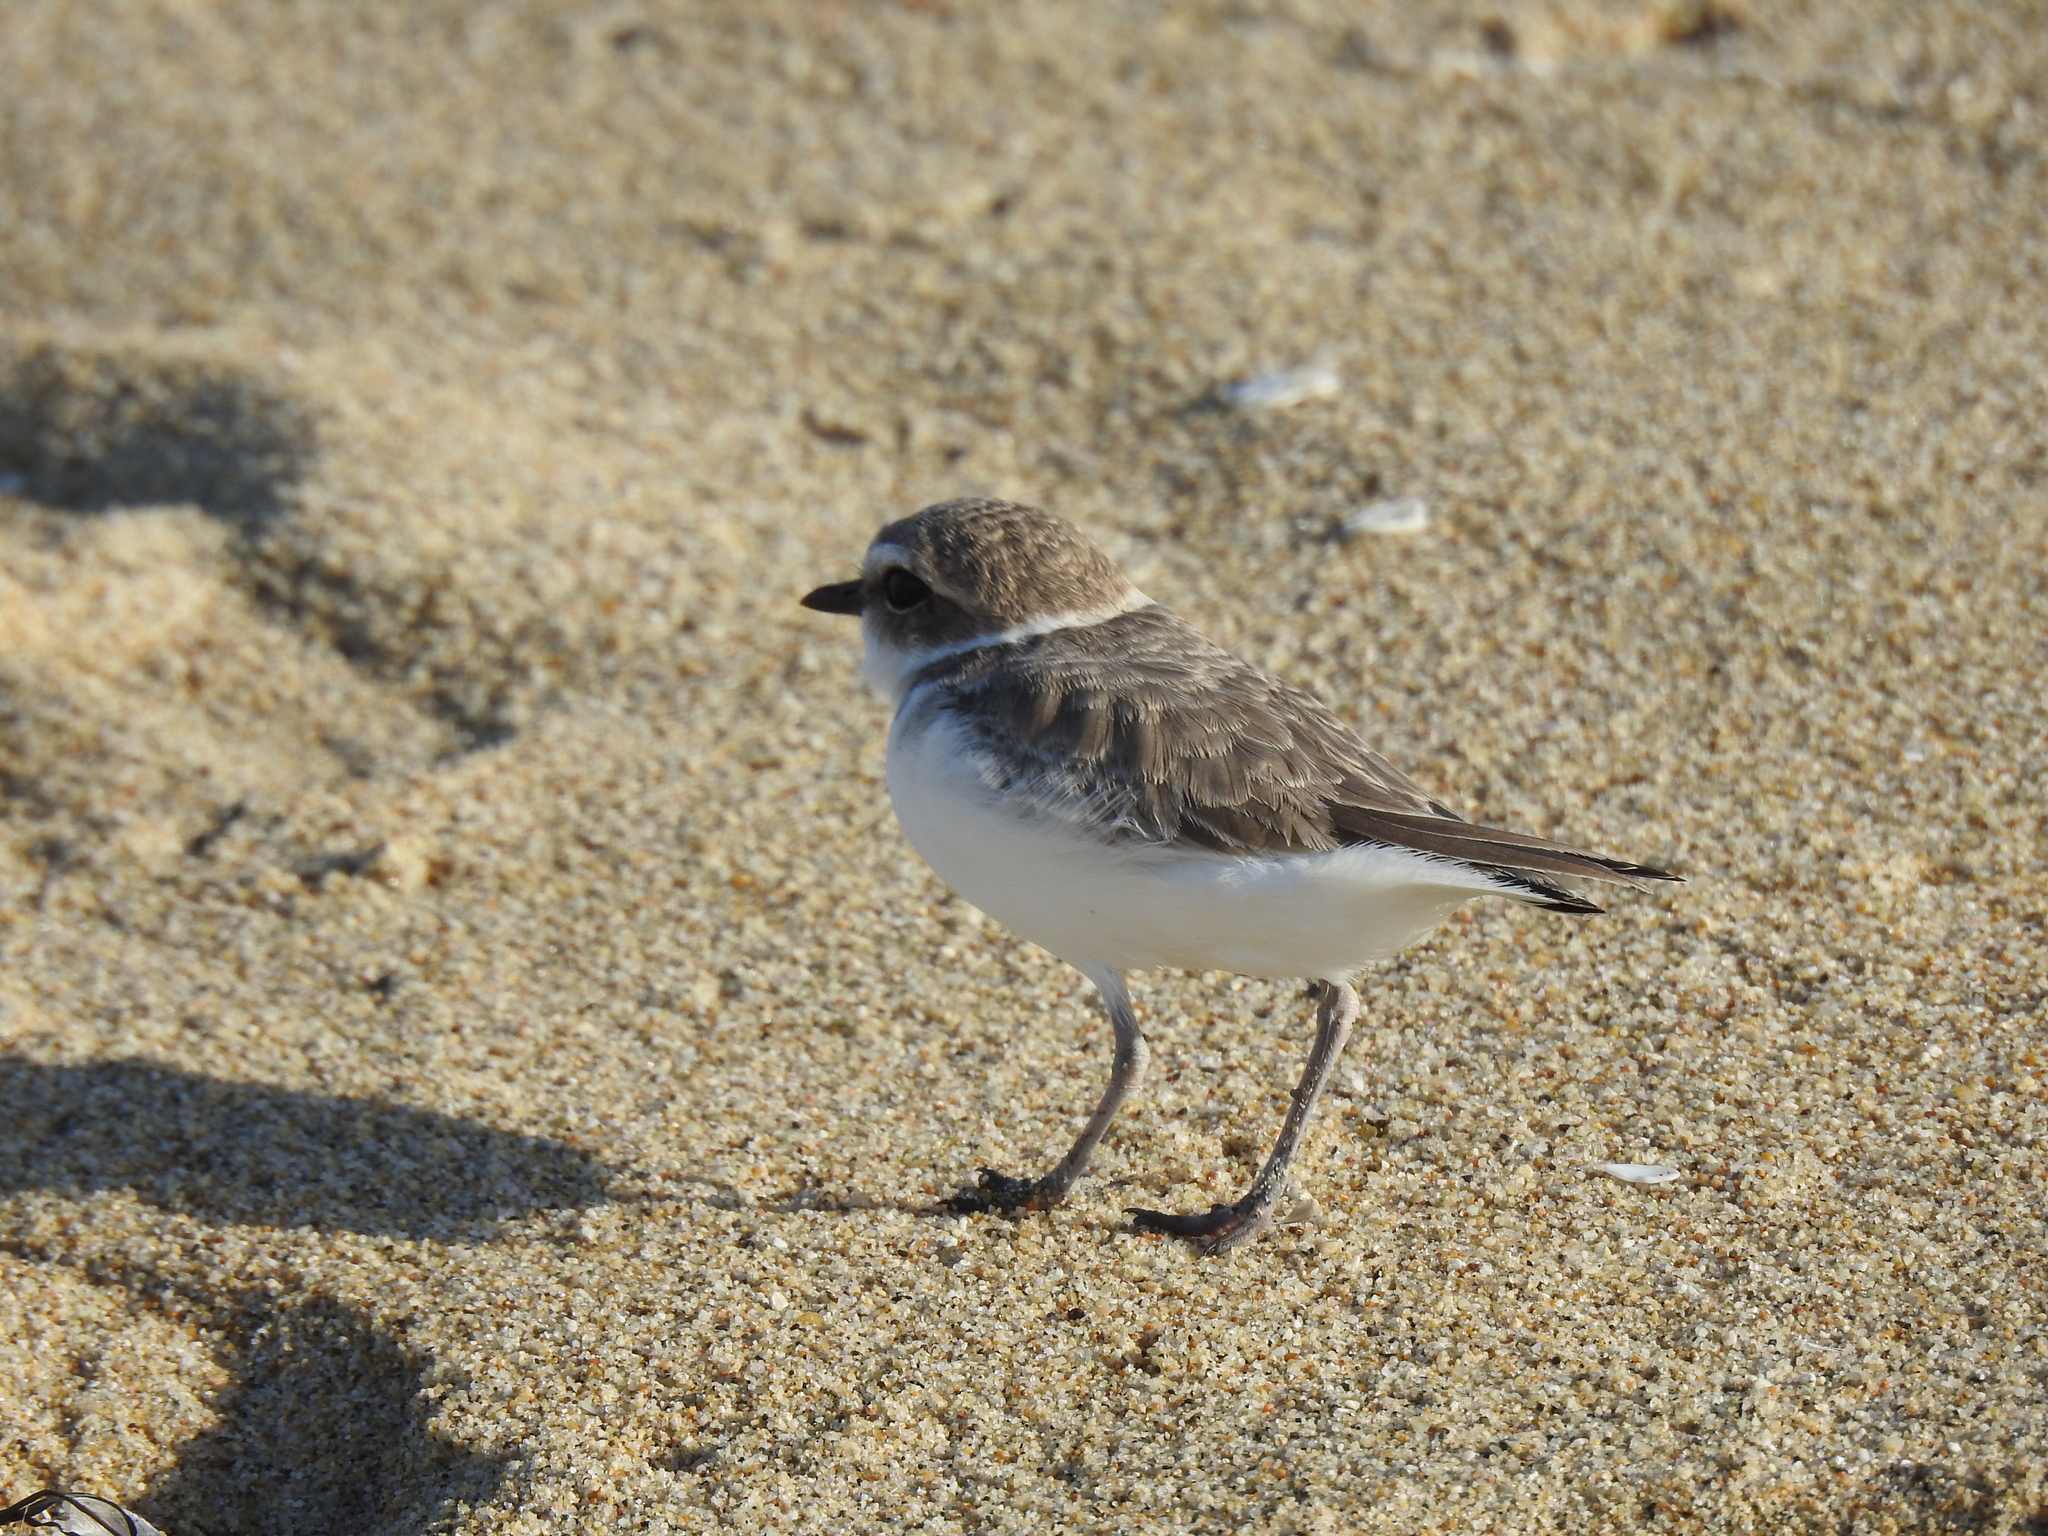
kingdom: Animalia
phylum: Chordata
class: Aves
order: Charadriiformes
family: Charadriidae
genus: Anarhynchus
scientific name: Anarhynchus
